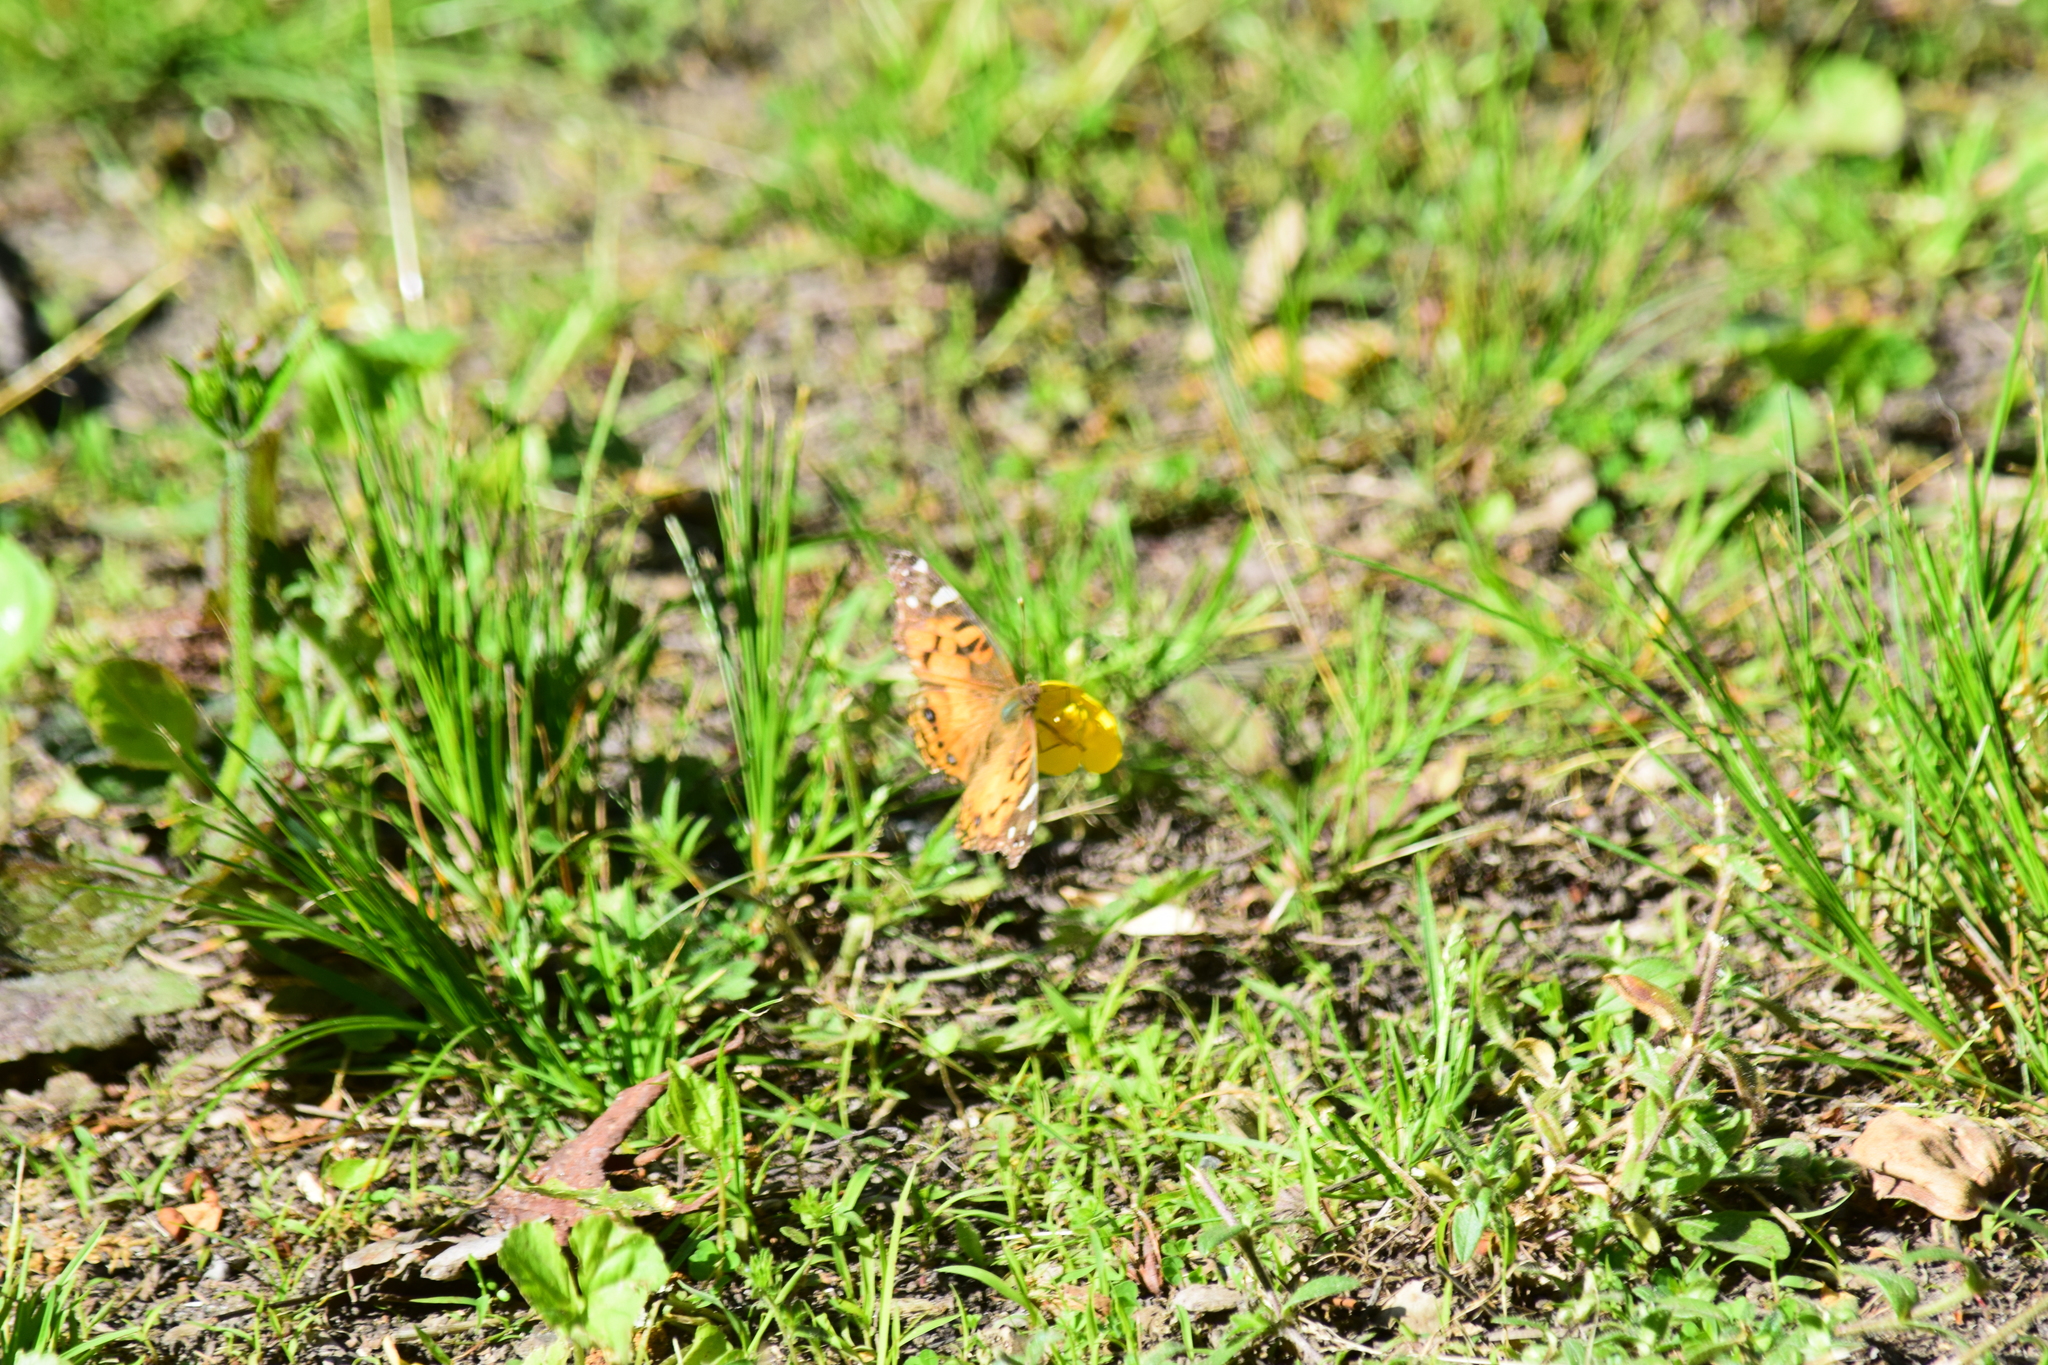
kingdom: Animalia
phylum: Arthropoda
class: Insecta
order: Lepidoptera
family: Nymphalidae
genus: Vanessa
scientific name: Vanessa virginiensis
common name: American lady
